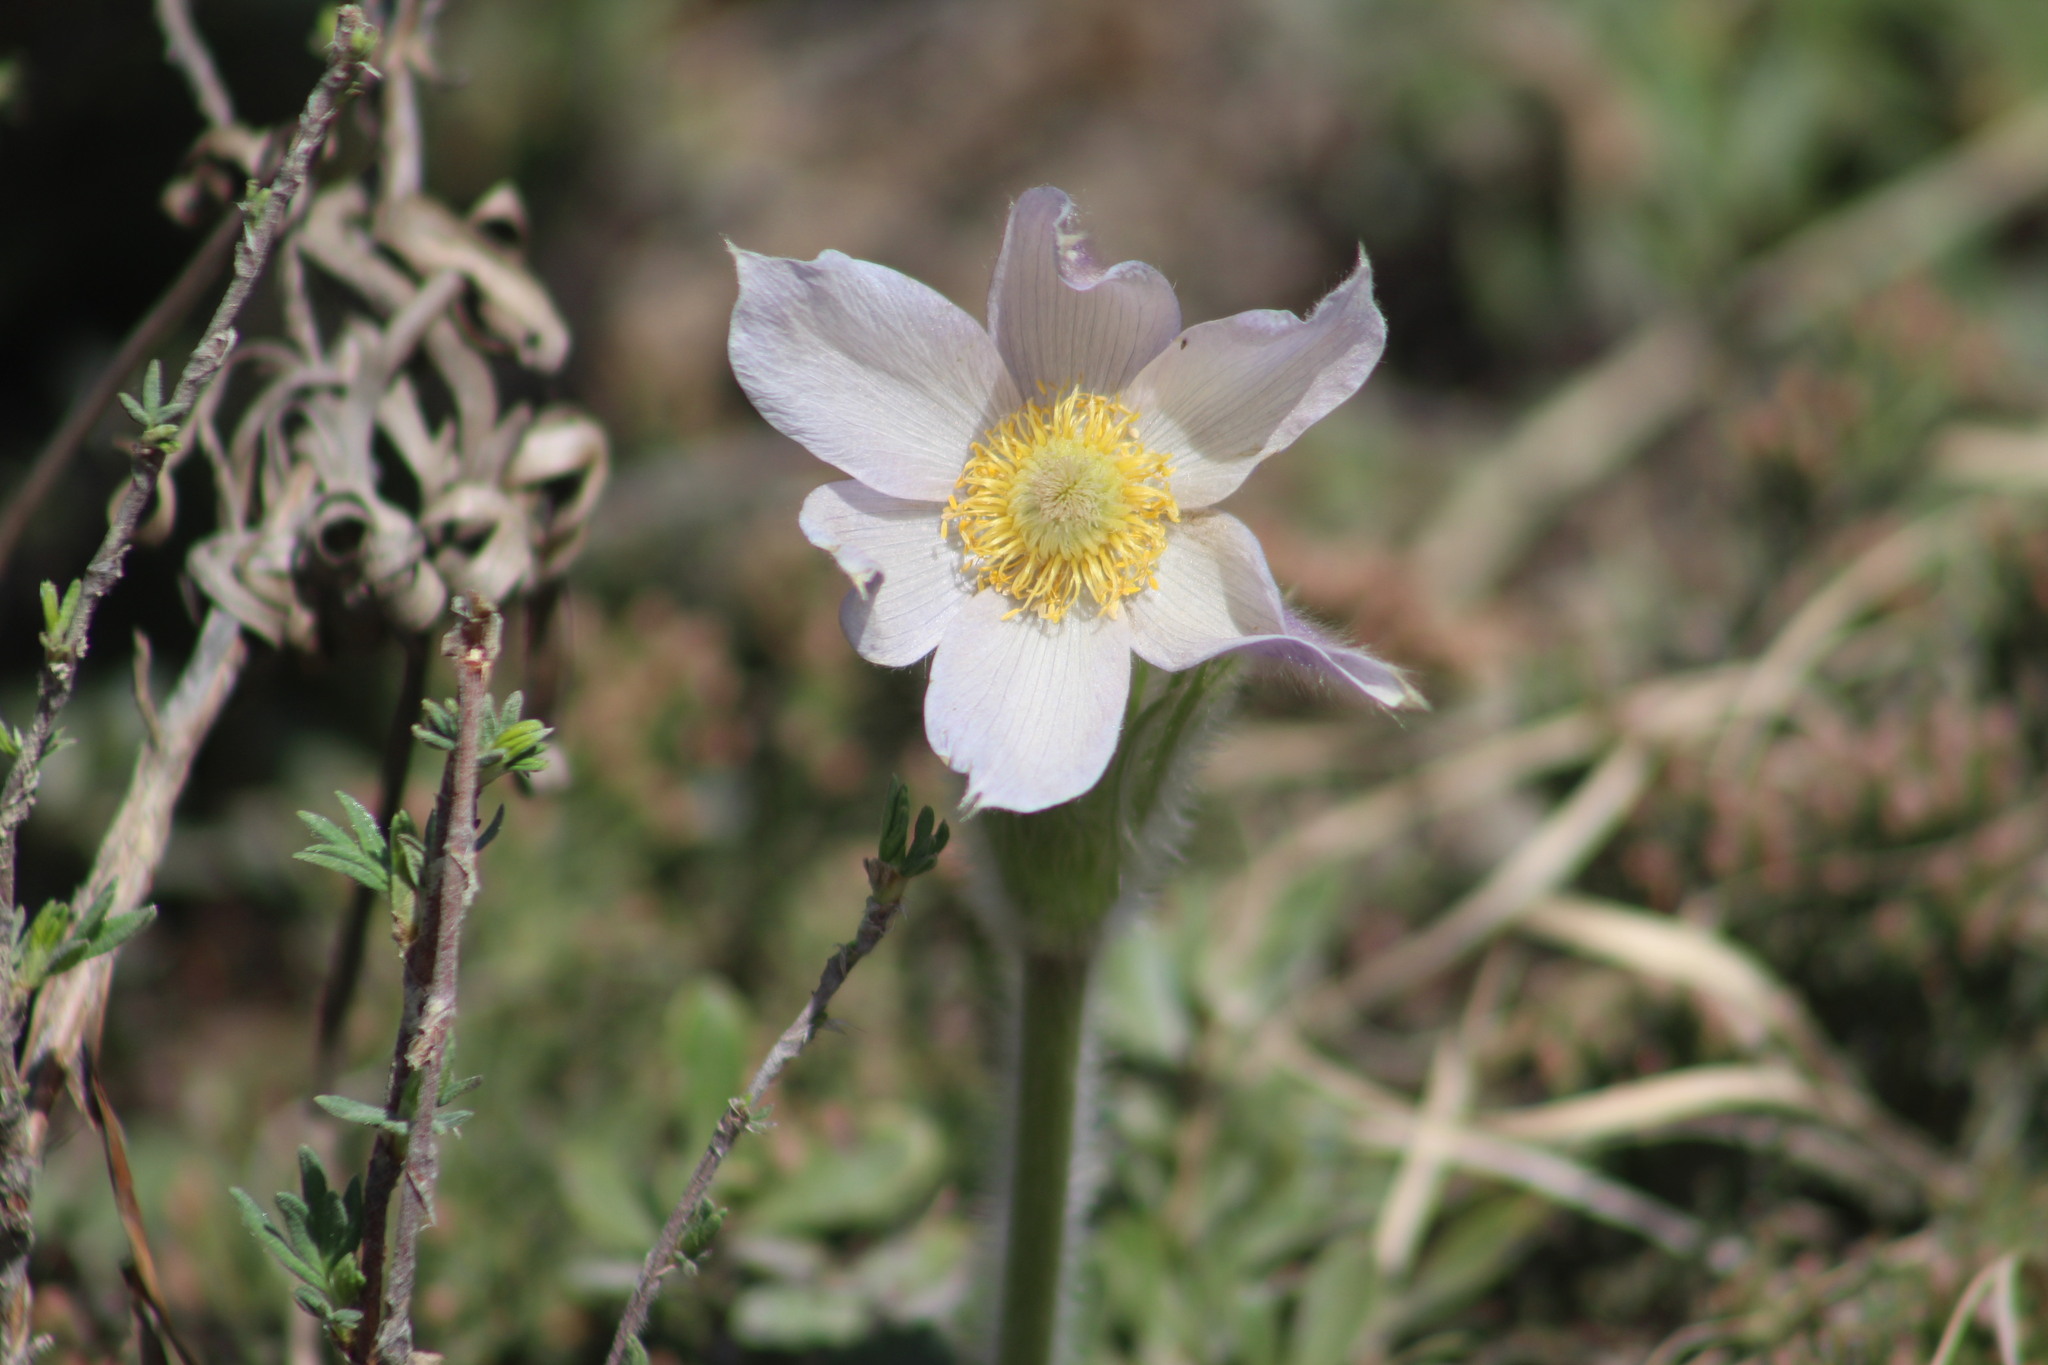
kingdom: Plantae
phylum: Tracheophyta
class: Magnoliopsida
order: Ranunculales
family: Ranunculaceae
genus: Pulsatilla
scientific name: Pulsatilla nuttalliana
